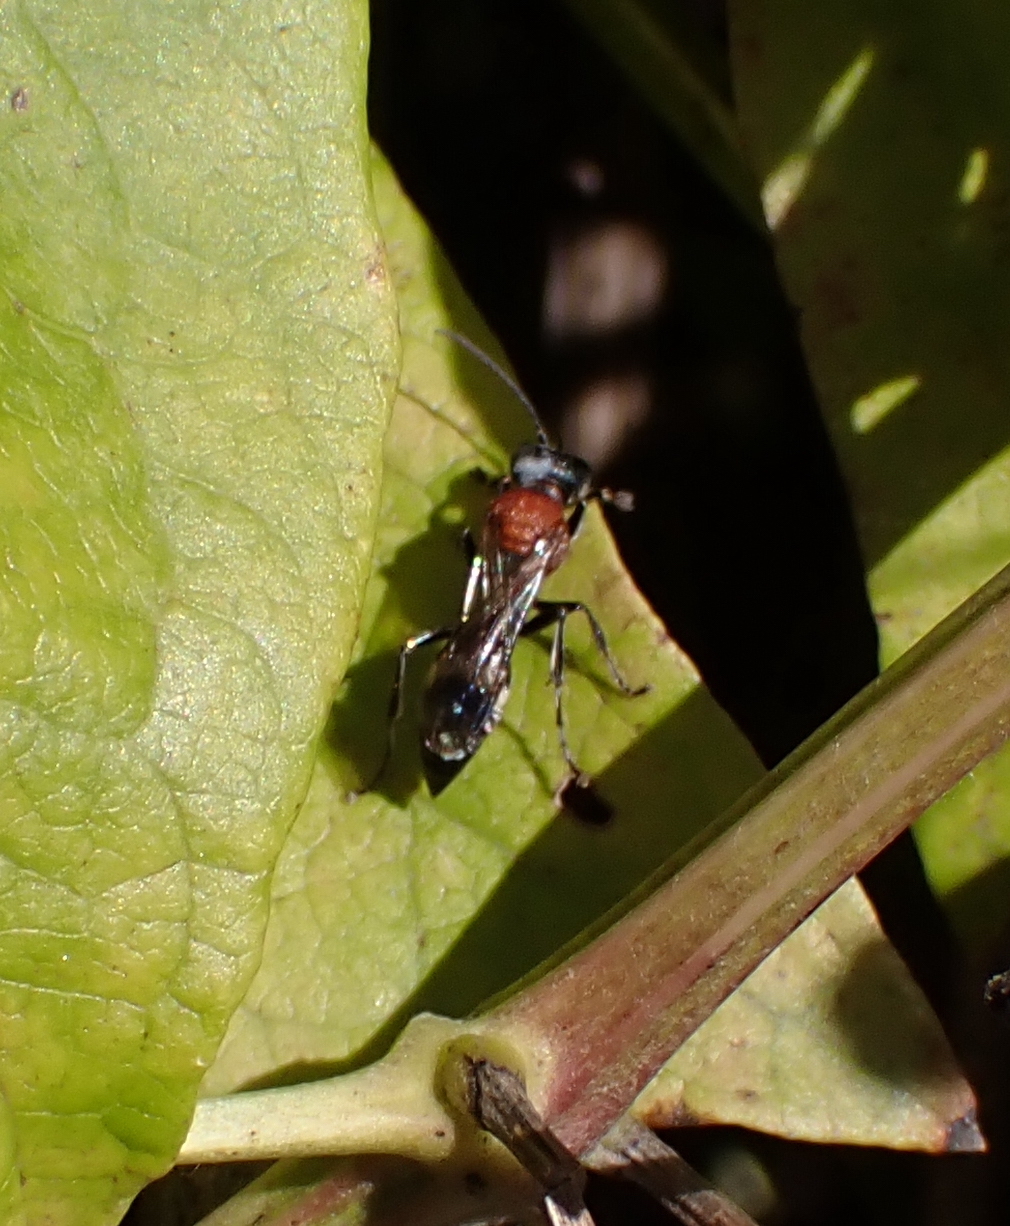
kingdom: Animalia
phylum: Arthropoda
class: Insecta
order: Hymenoptera
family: Crabronidae
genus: Oryttus
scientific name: Oryttus concinnus
